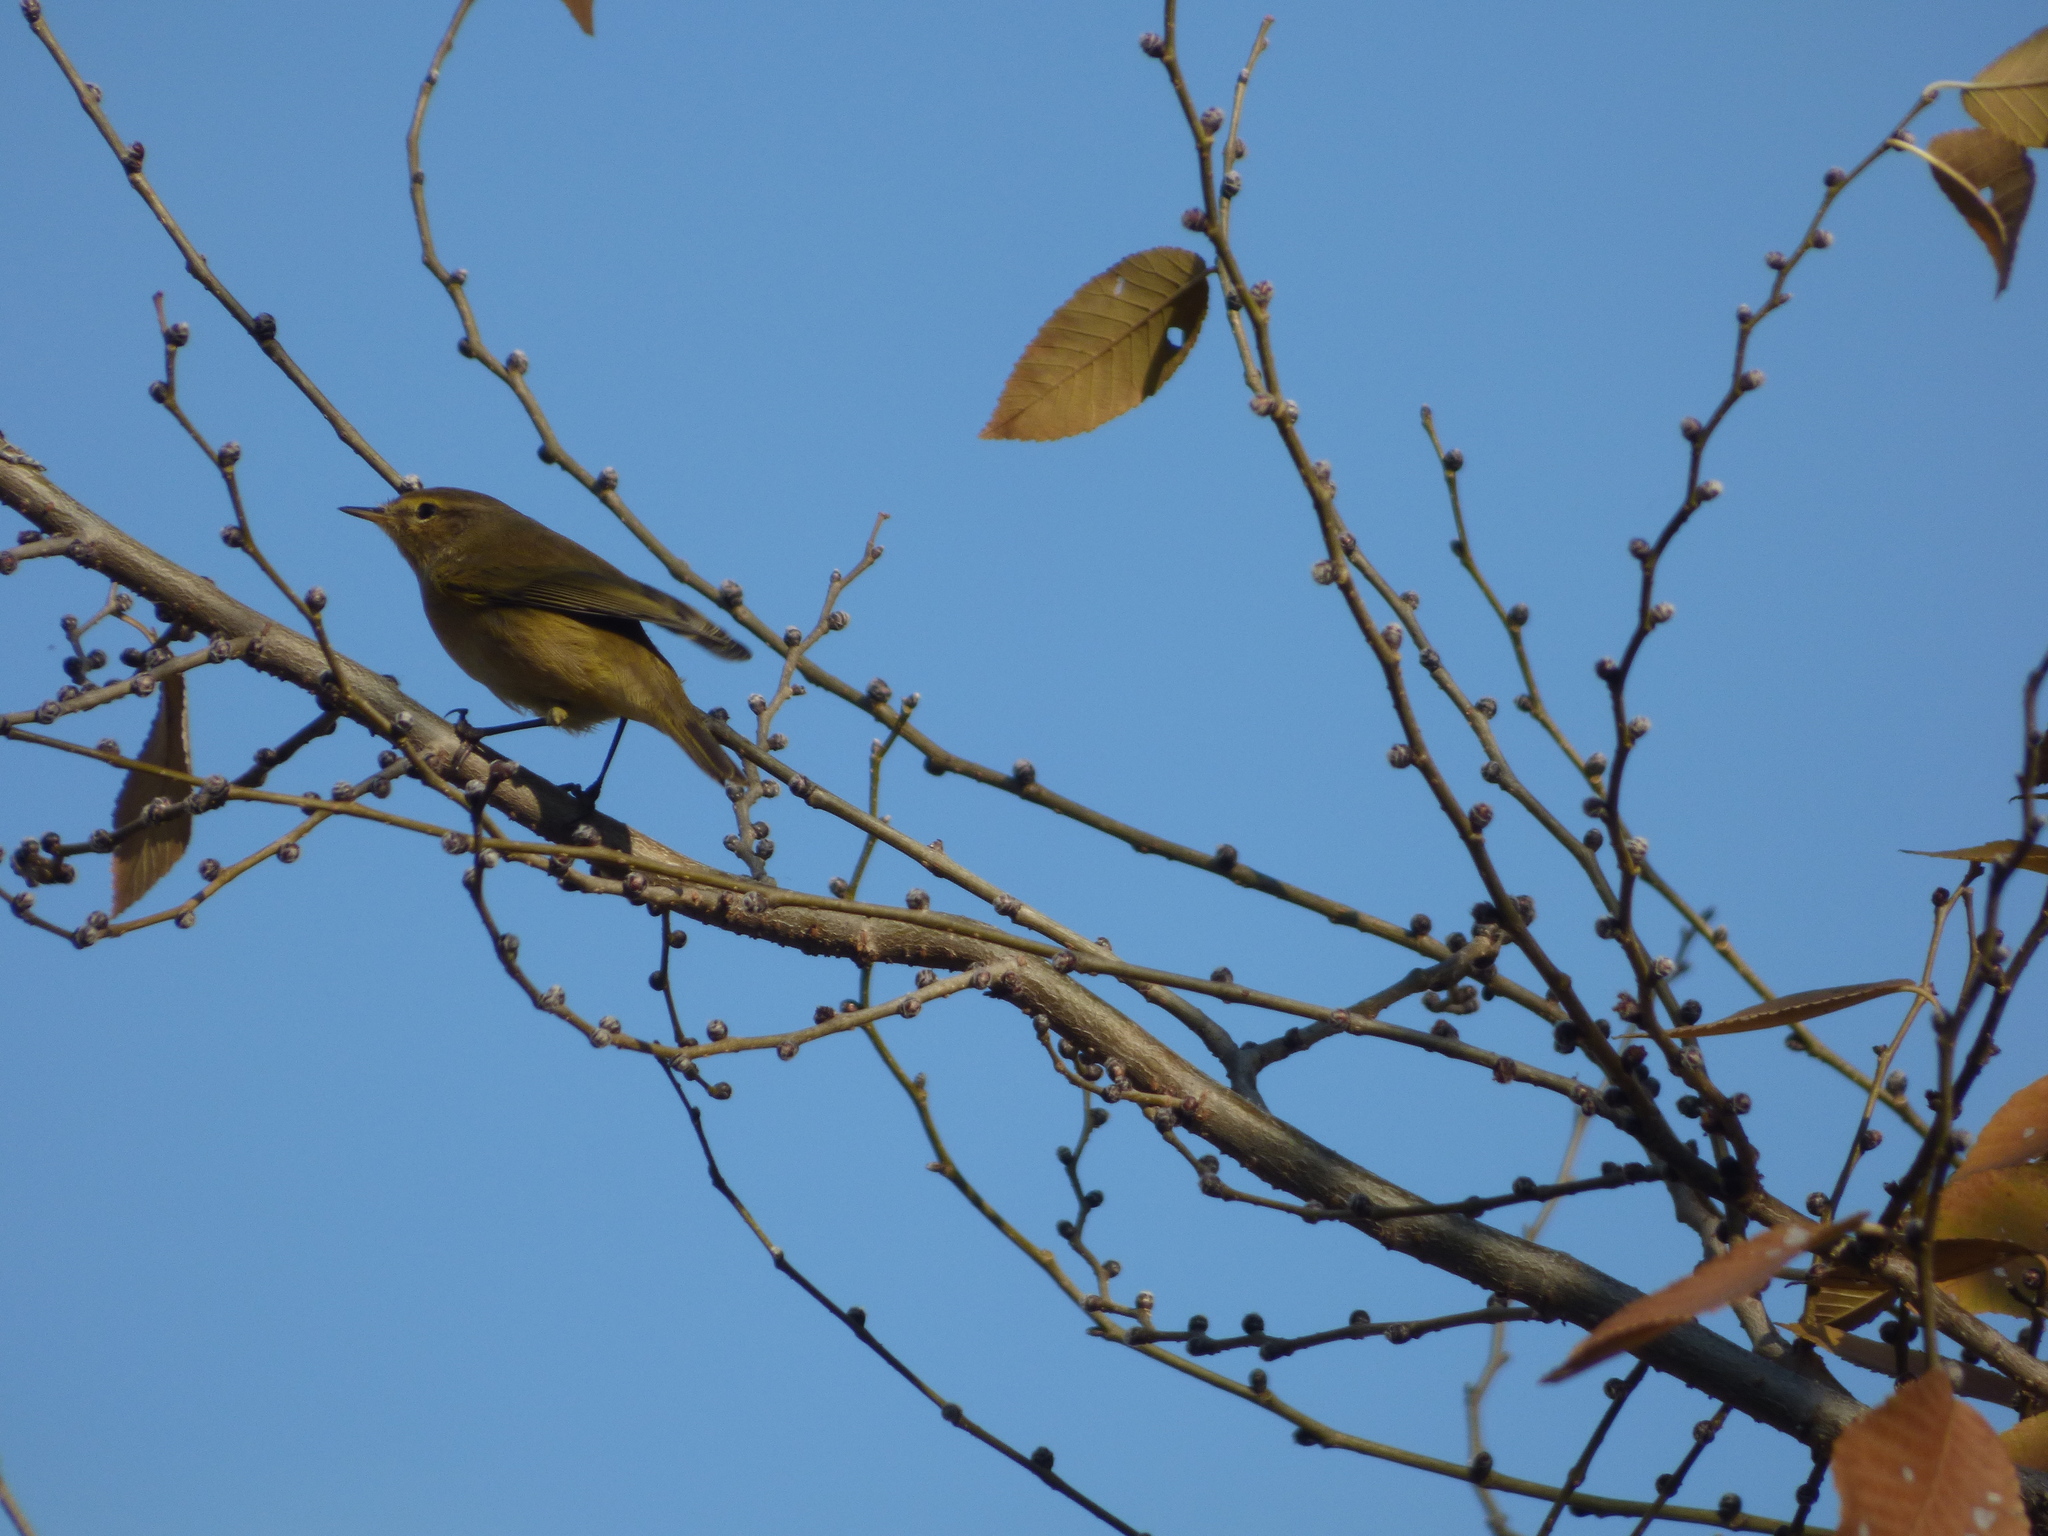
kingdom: Animalia
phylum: Chordata
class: Aves
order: Passeriformes
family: Phylloscopidae
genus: Phylloscopus
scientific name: Phylloscopus collybita
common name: Common chiffchaff
